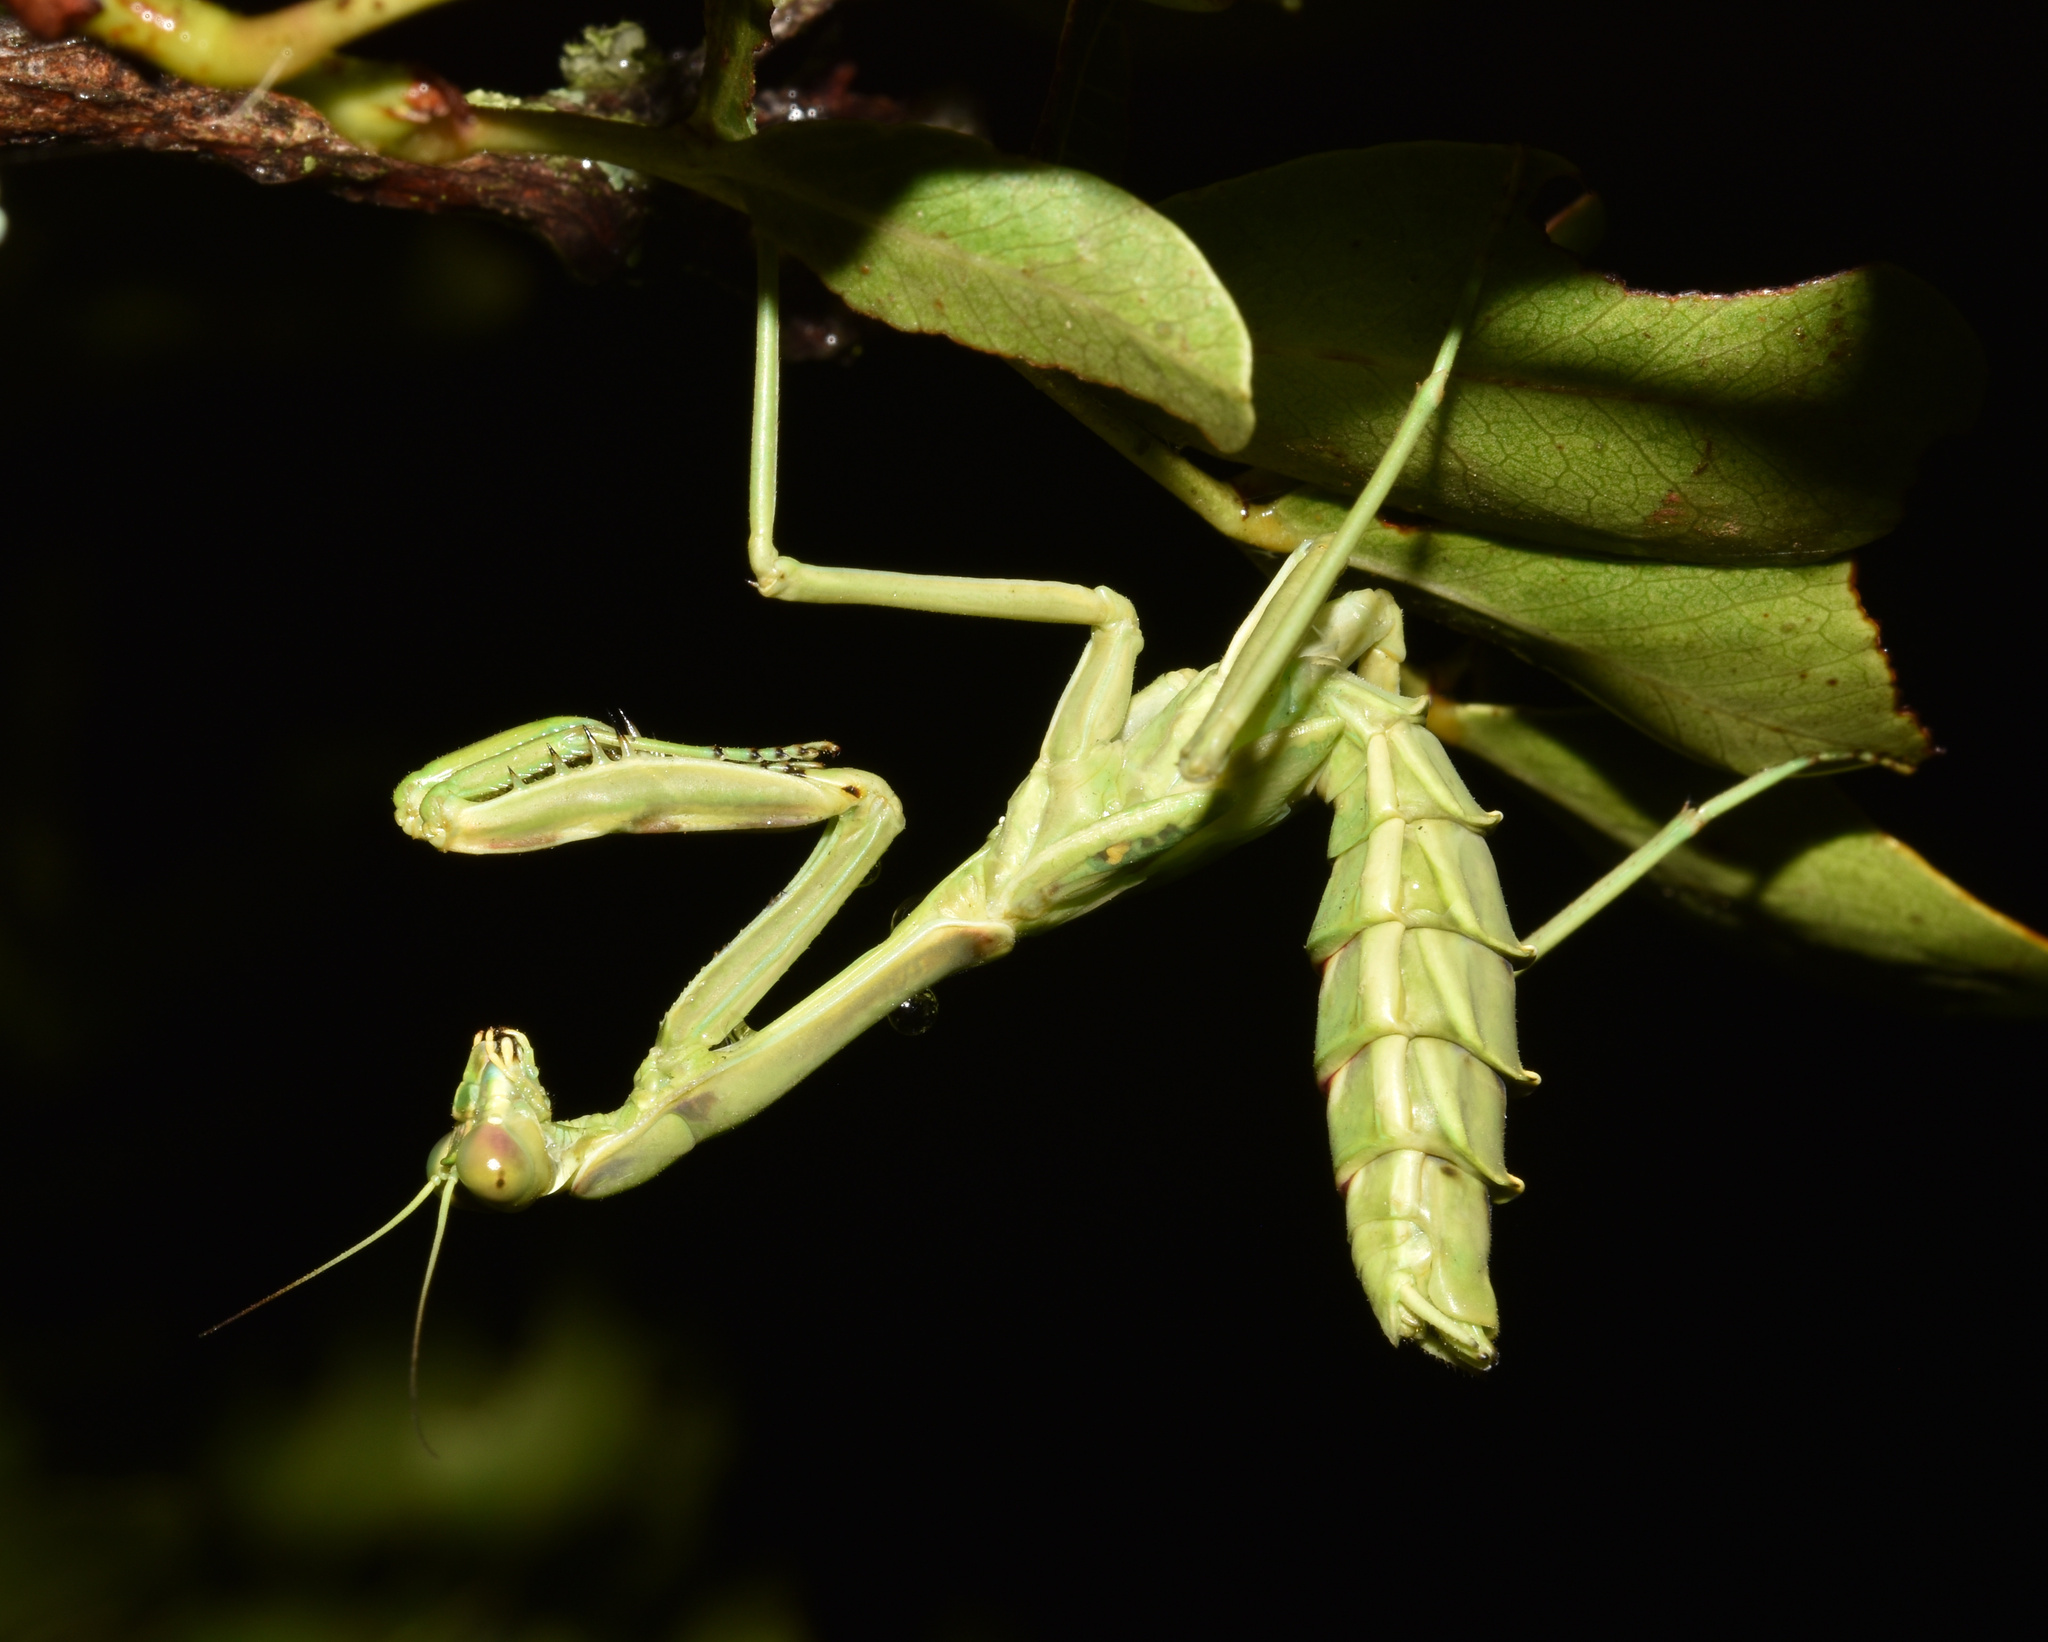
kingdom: Animalia
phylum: Arthropoda
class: Insecta
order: Mantodea
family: Mantidae
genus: Omomantis
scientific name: Omomantis zebrata
